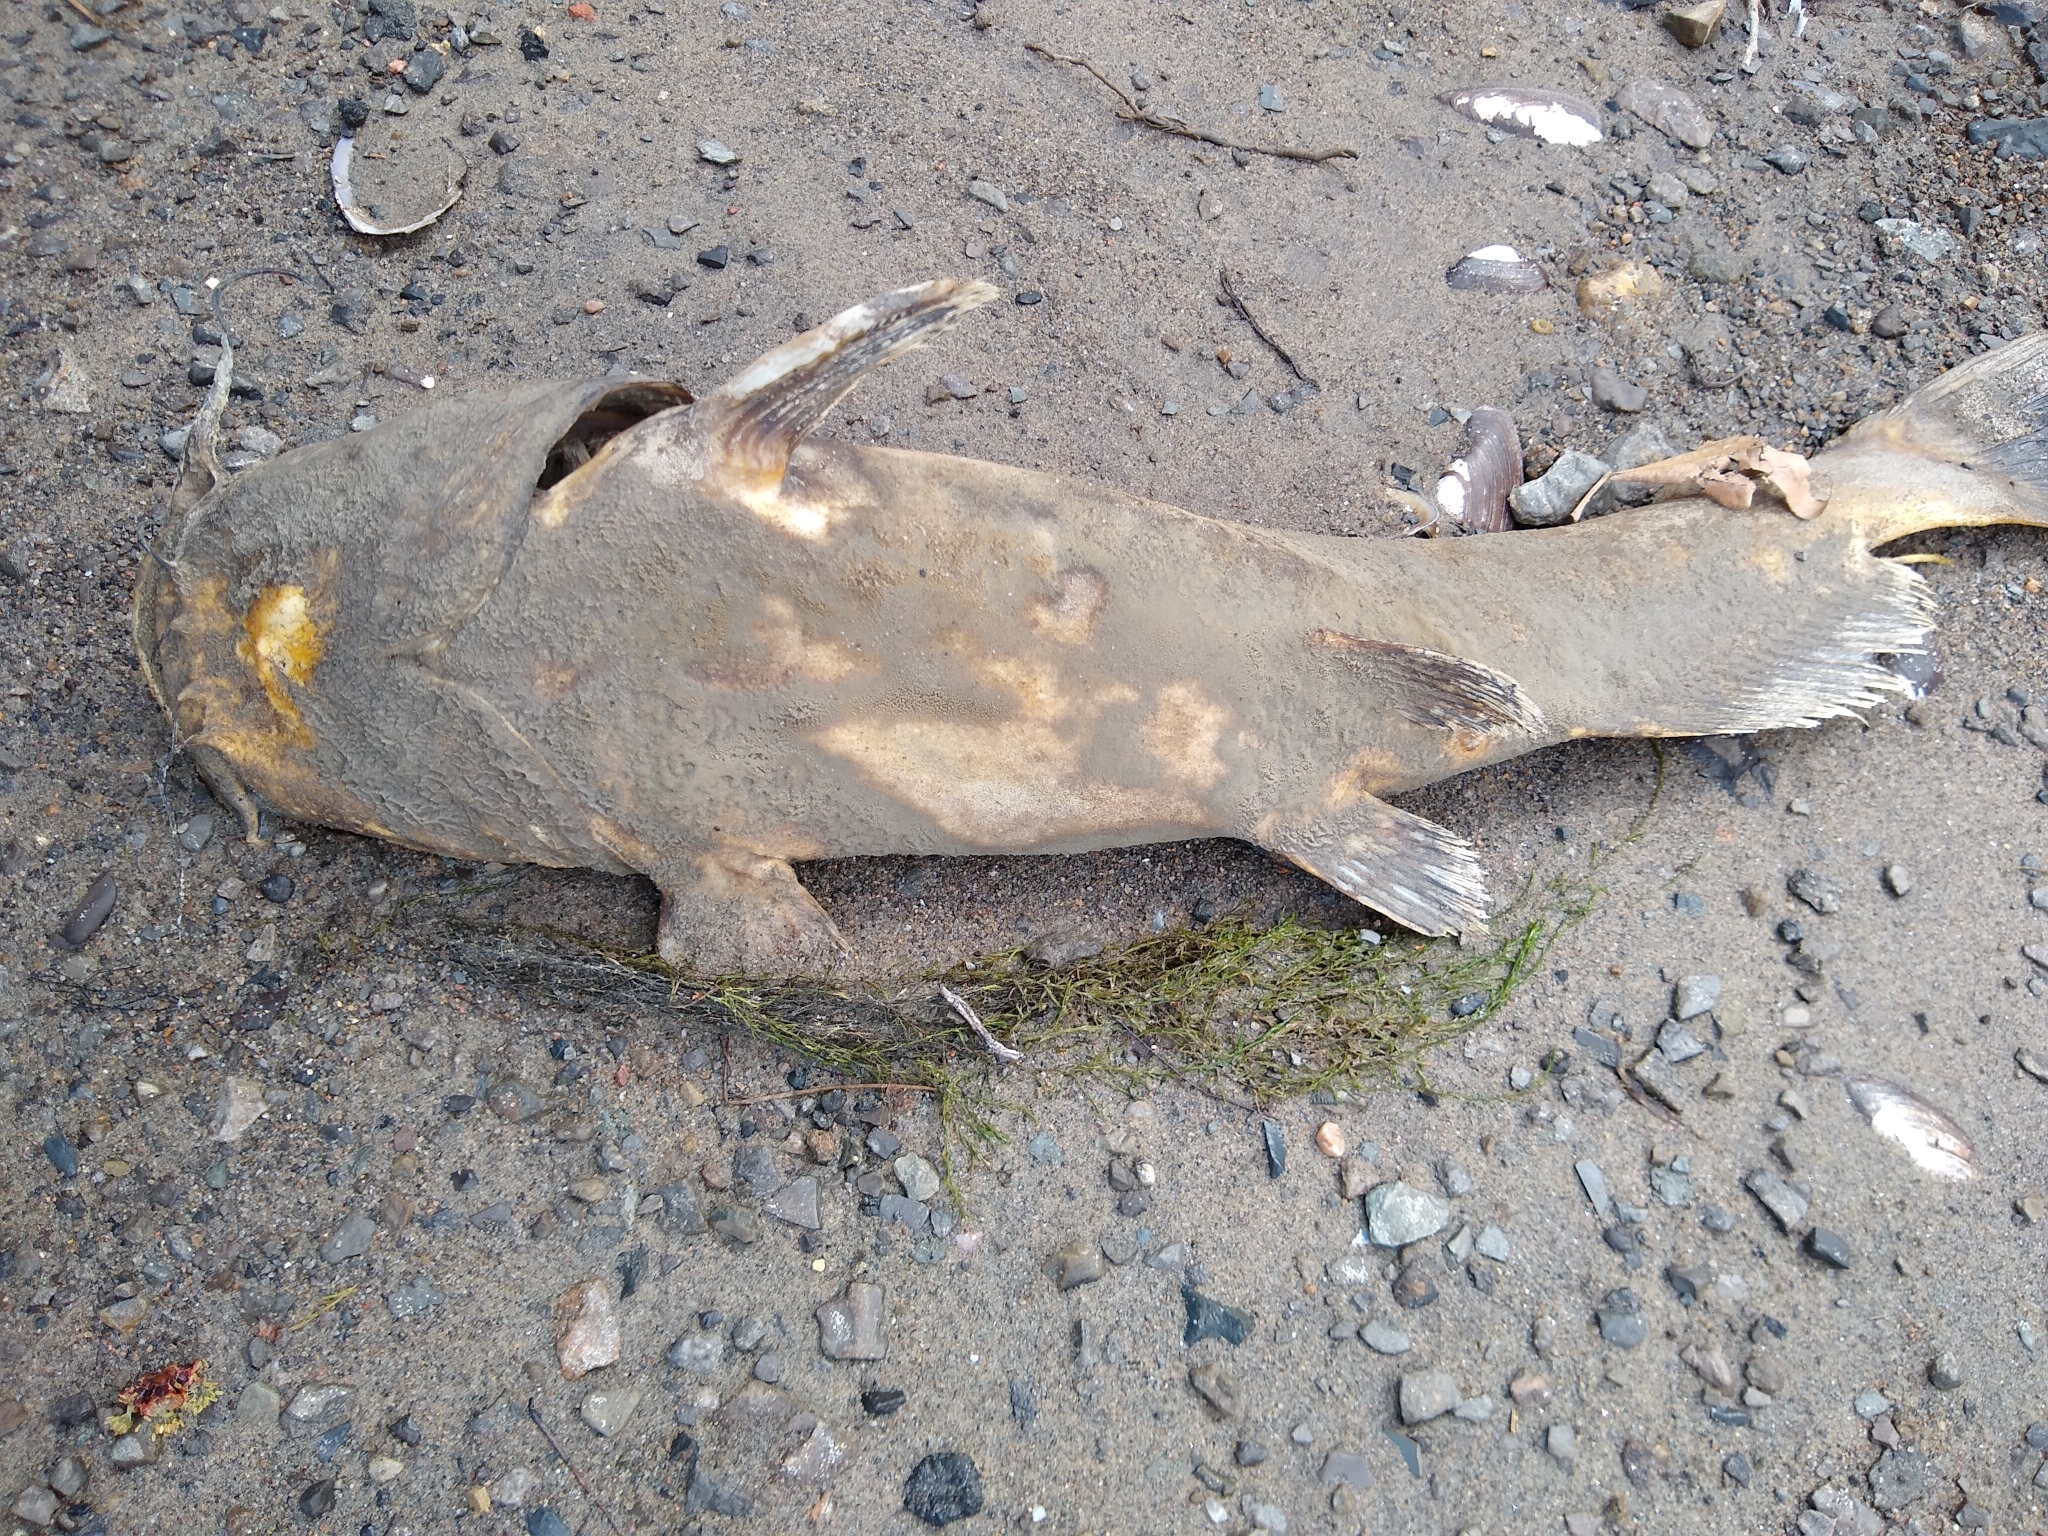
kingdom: Animalia
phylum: Chordata
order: Siluriformes
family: Ictaluridae
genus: Ictalurus
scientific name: Ictalurus punctatus
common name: Channel catfish
